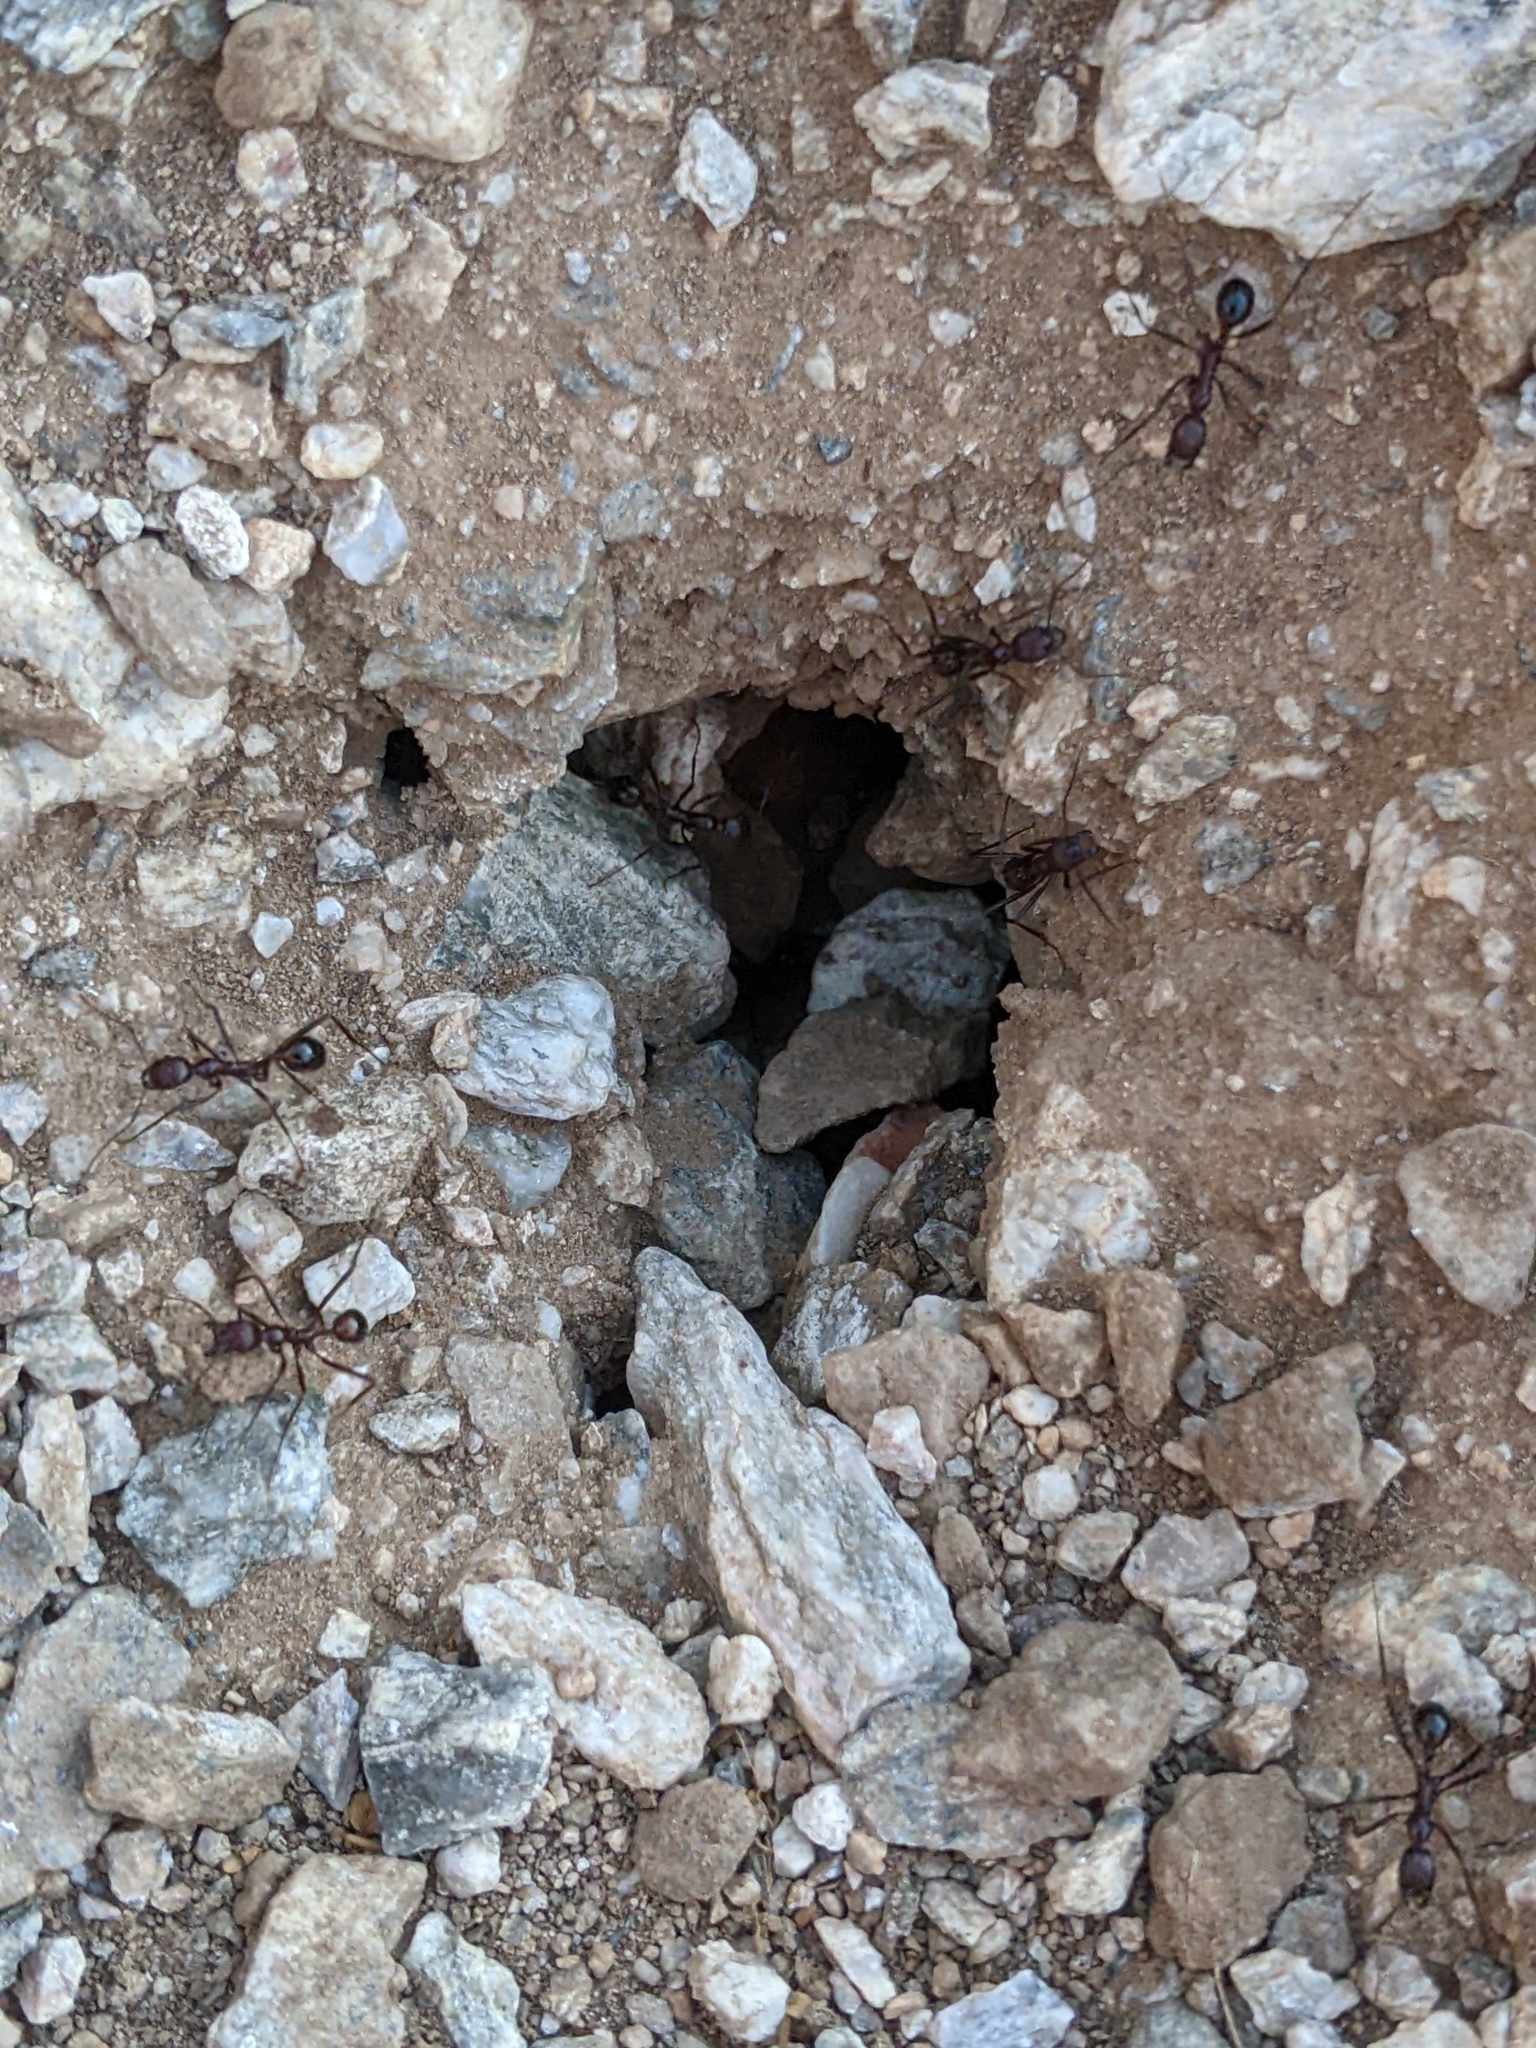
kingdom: Animalia
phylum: Arthropoda
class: Insecta
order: Hymenoptera
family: Formicidae
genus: Novomessor
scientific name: Novomessor cockerelli
